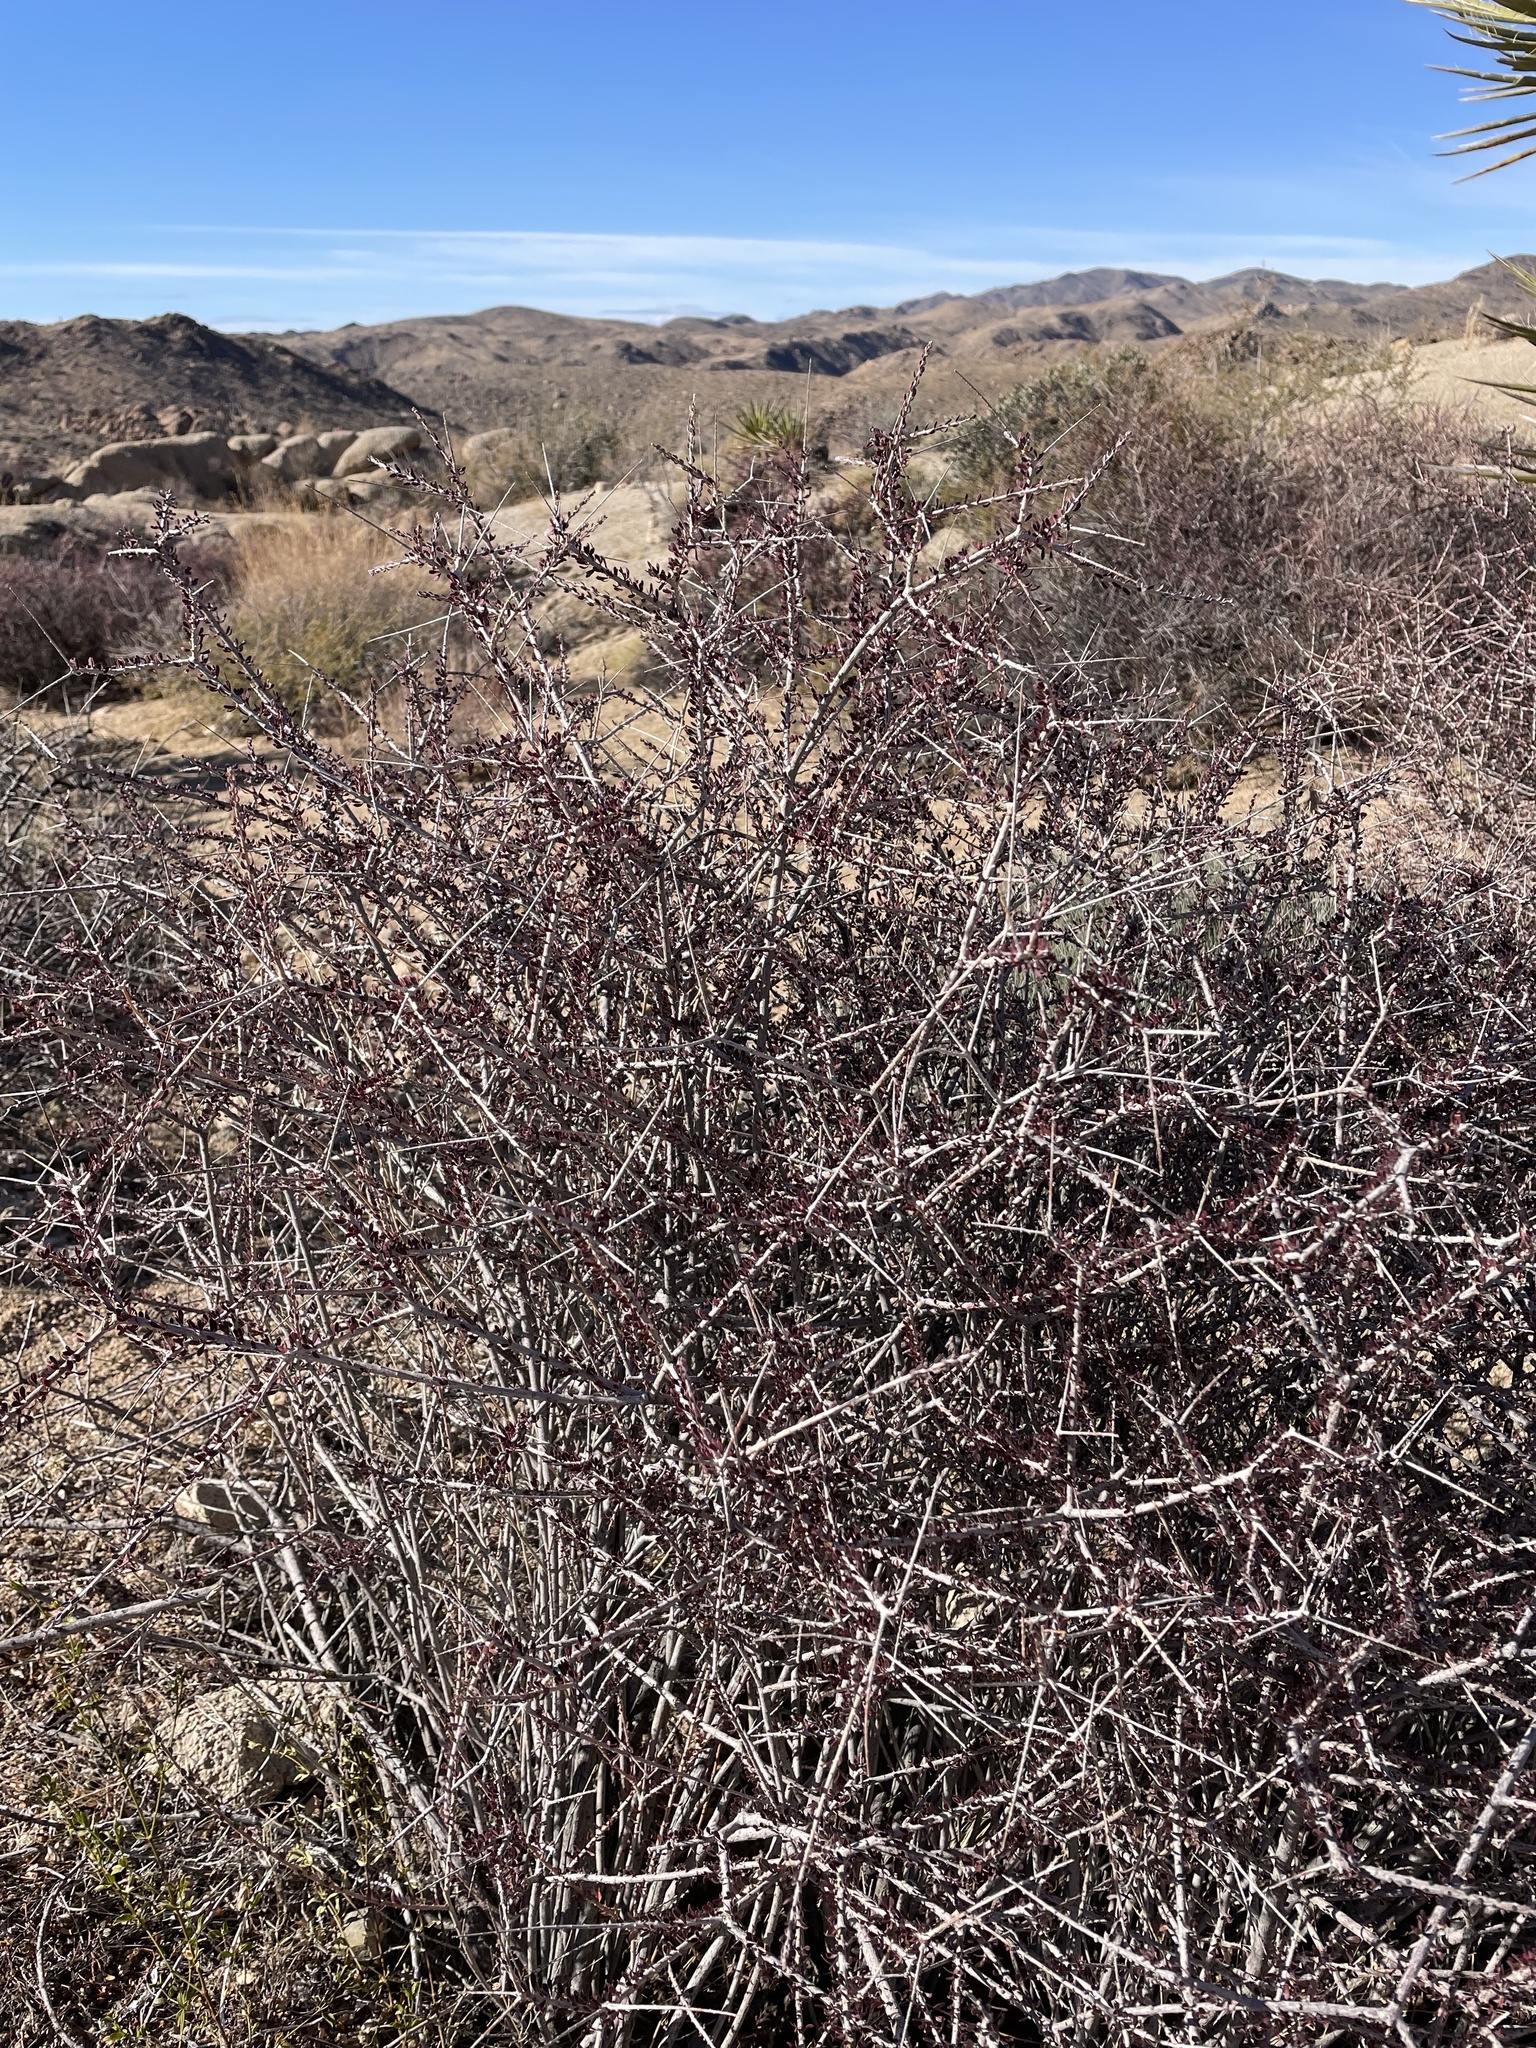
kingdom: Plantae
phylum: Tracheophyta
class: Magnoliopsida
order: Malpighiales
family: Picrodendraceae
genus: Tetracoccus
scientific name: Tetracoccus hallii
